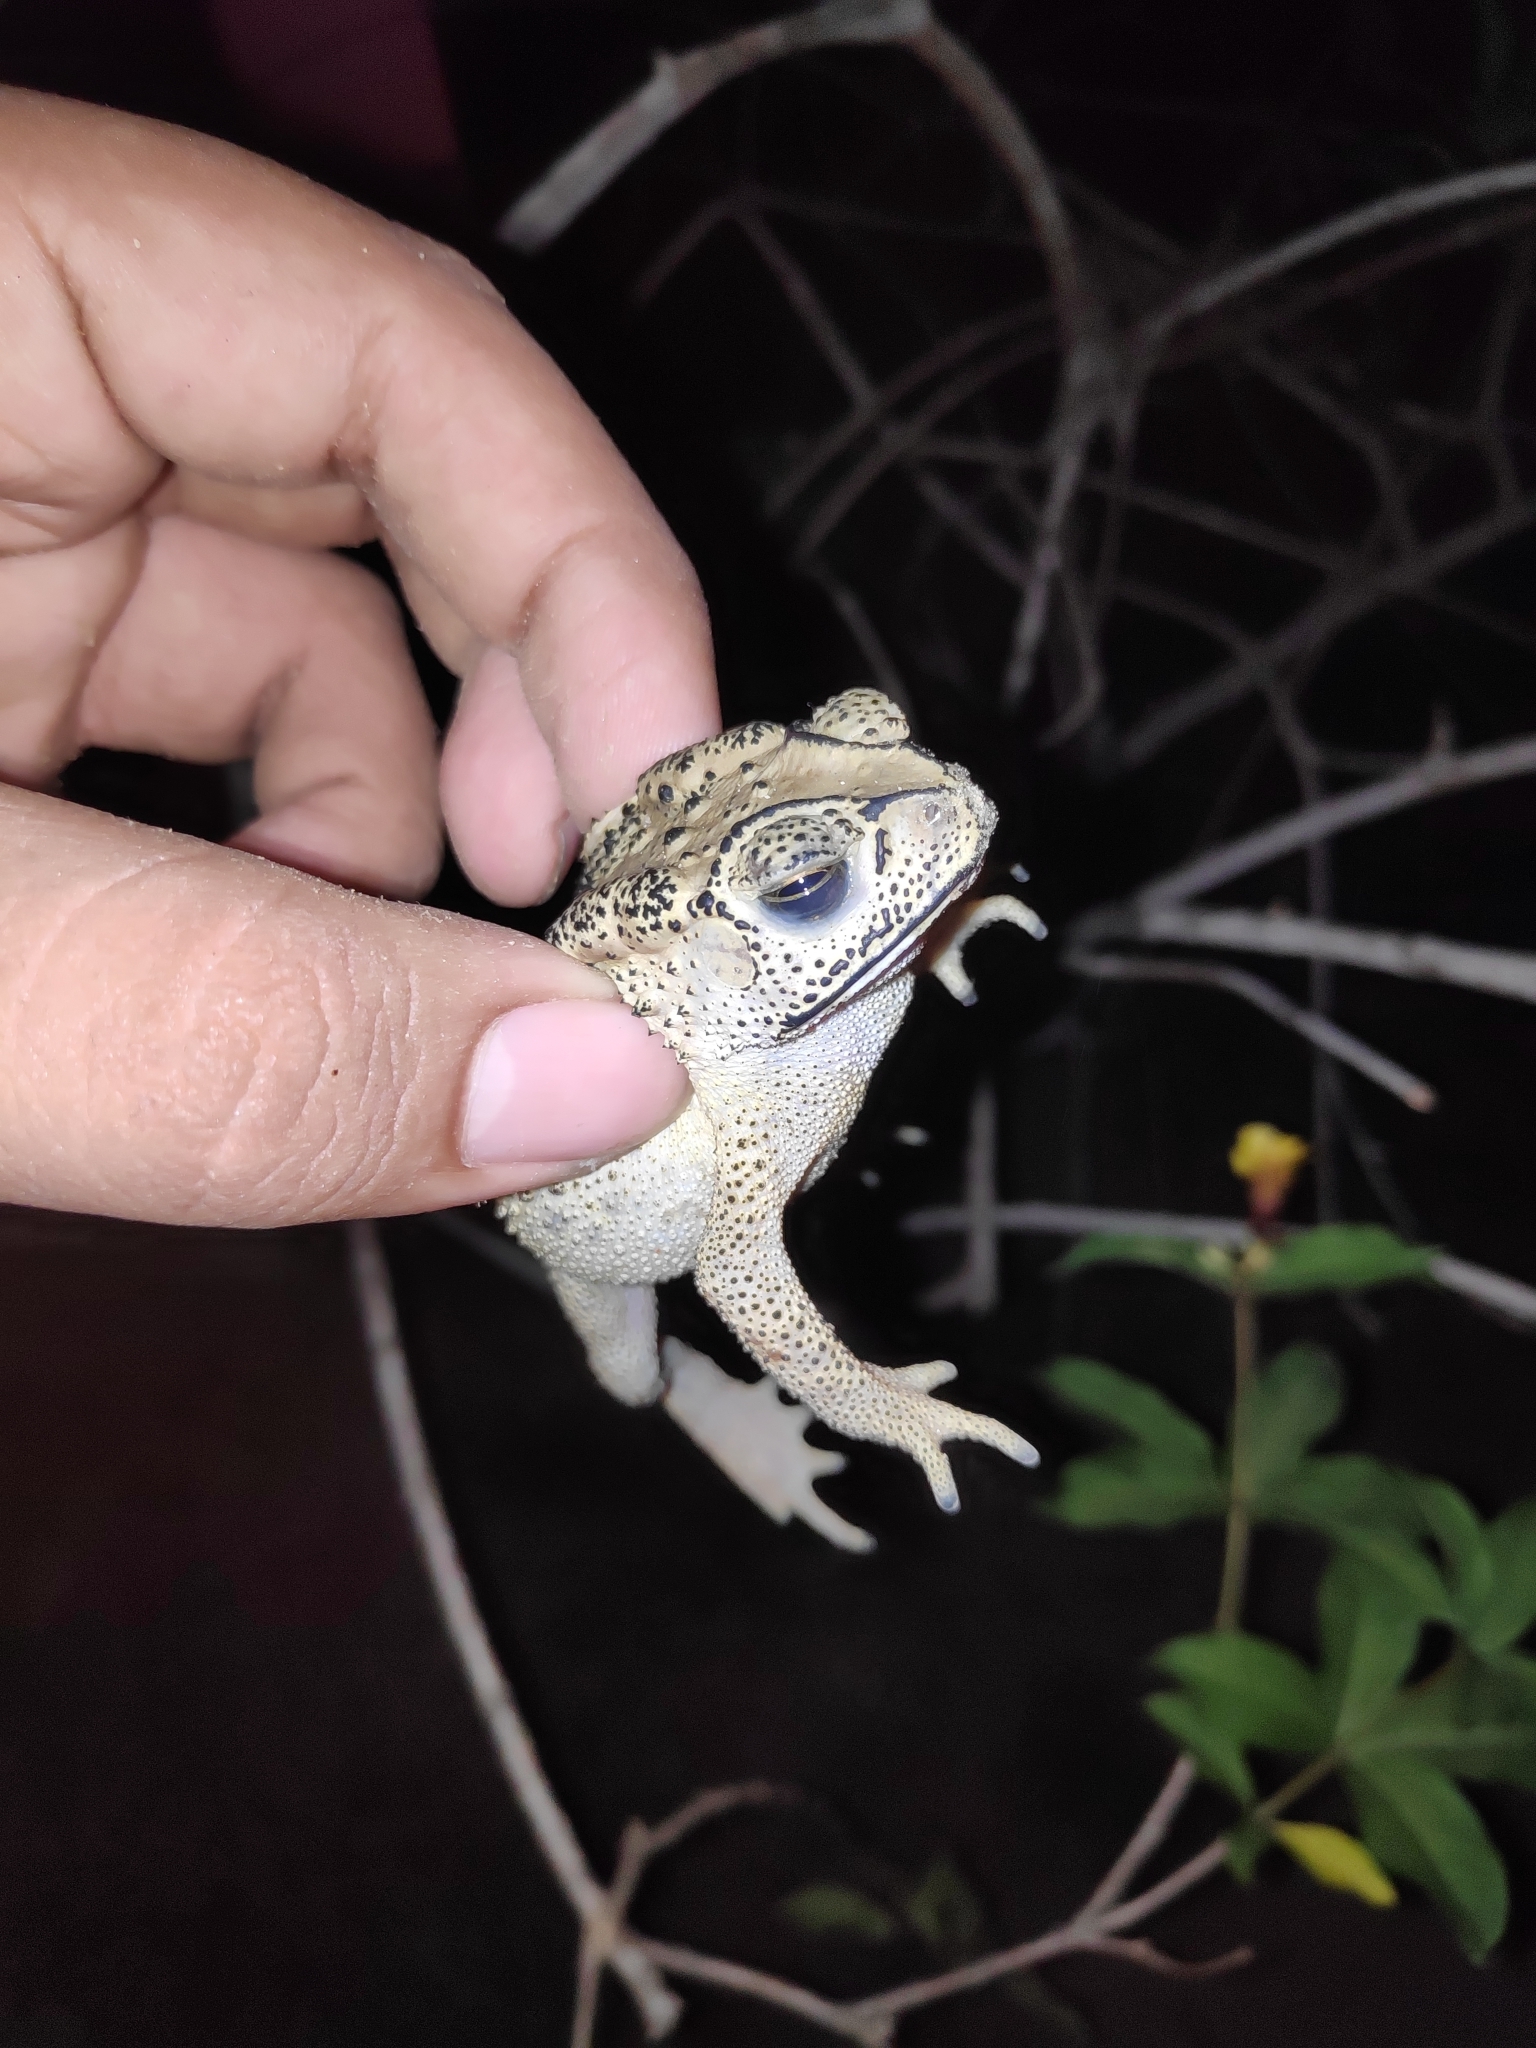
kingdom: Animalia
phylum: Chordata
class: Amphibia
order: Anura
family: Bufonidae
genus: Duttaphrynus
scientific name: Duttaphrynus melanostictus
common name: Common sunda toad
